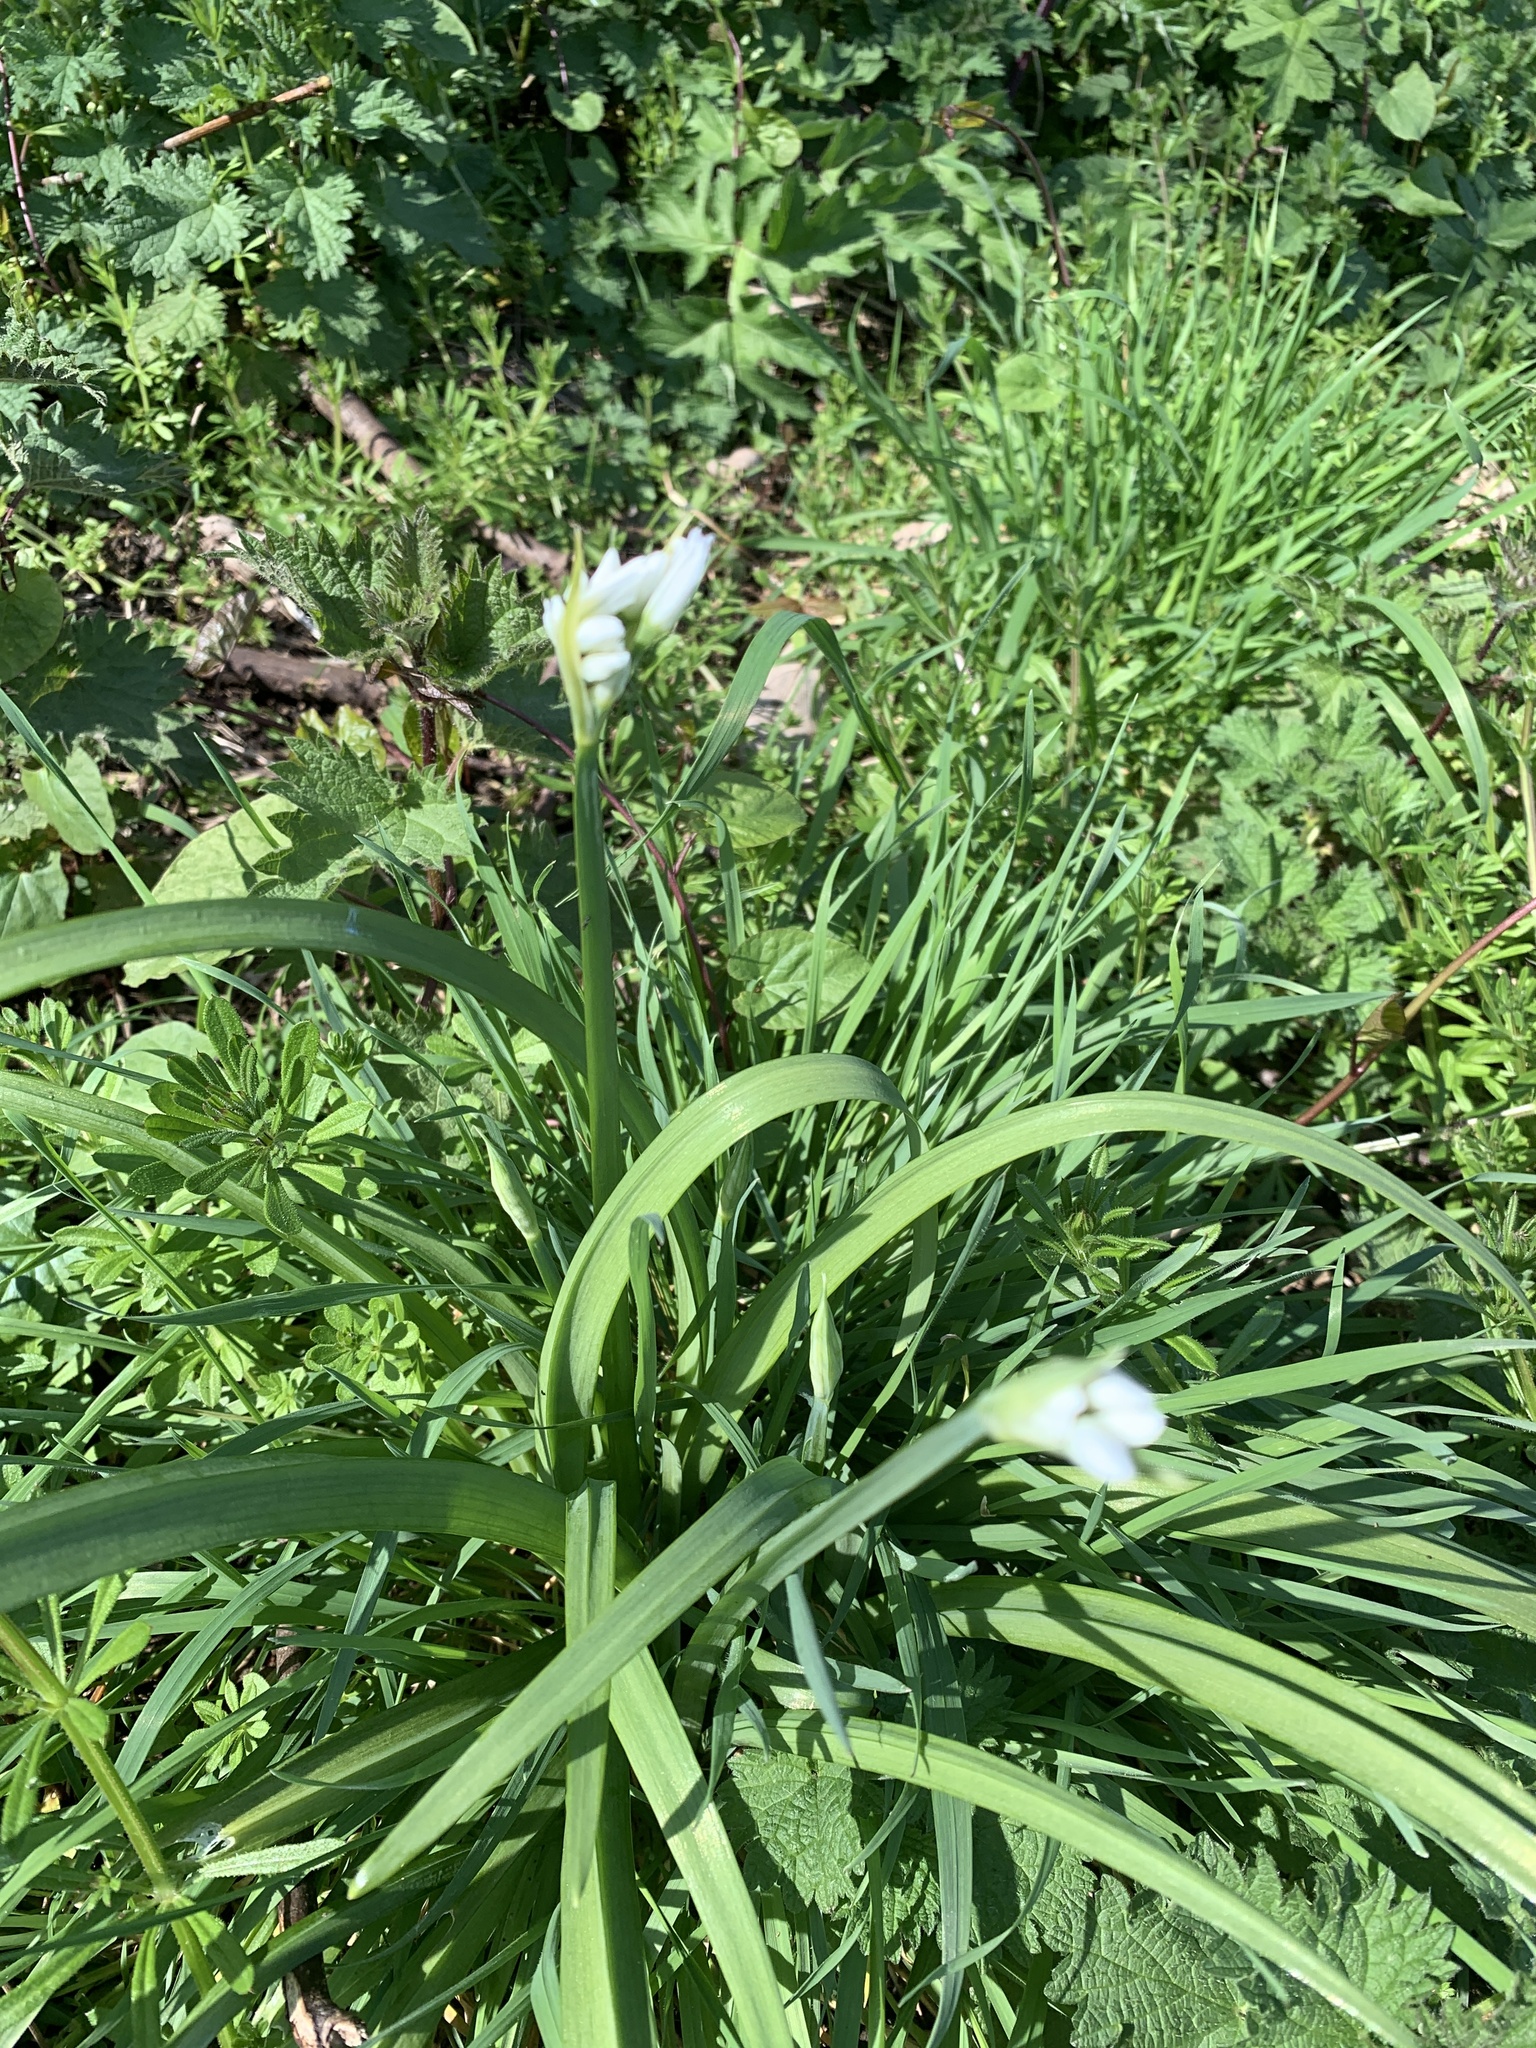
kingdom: Plantae
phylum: Tracheophyta
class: Liliopsida
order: Asparagales
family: Amaryllidaceae
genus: Allium
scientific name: Allium triquetrum
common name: Three-cornered garlic
